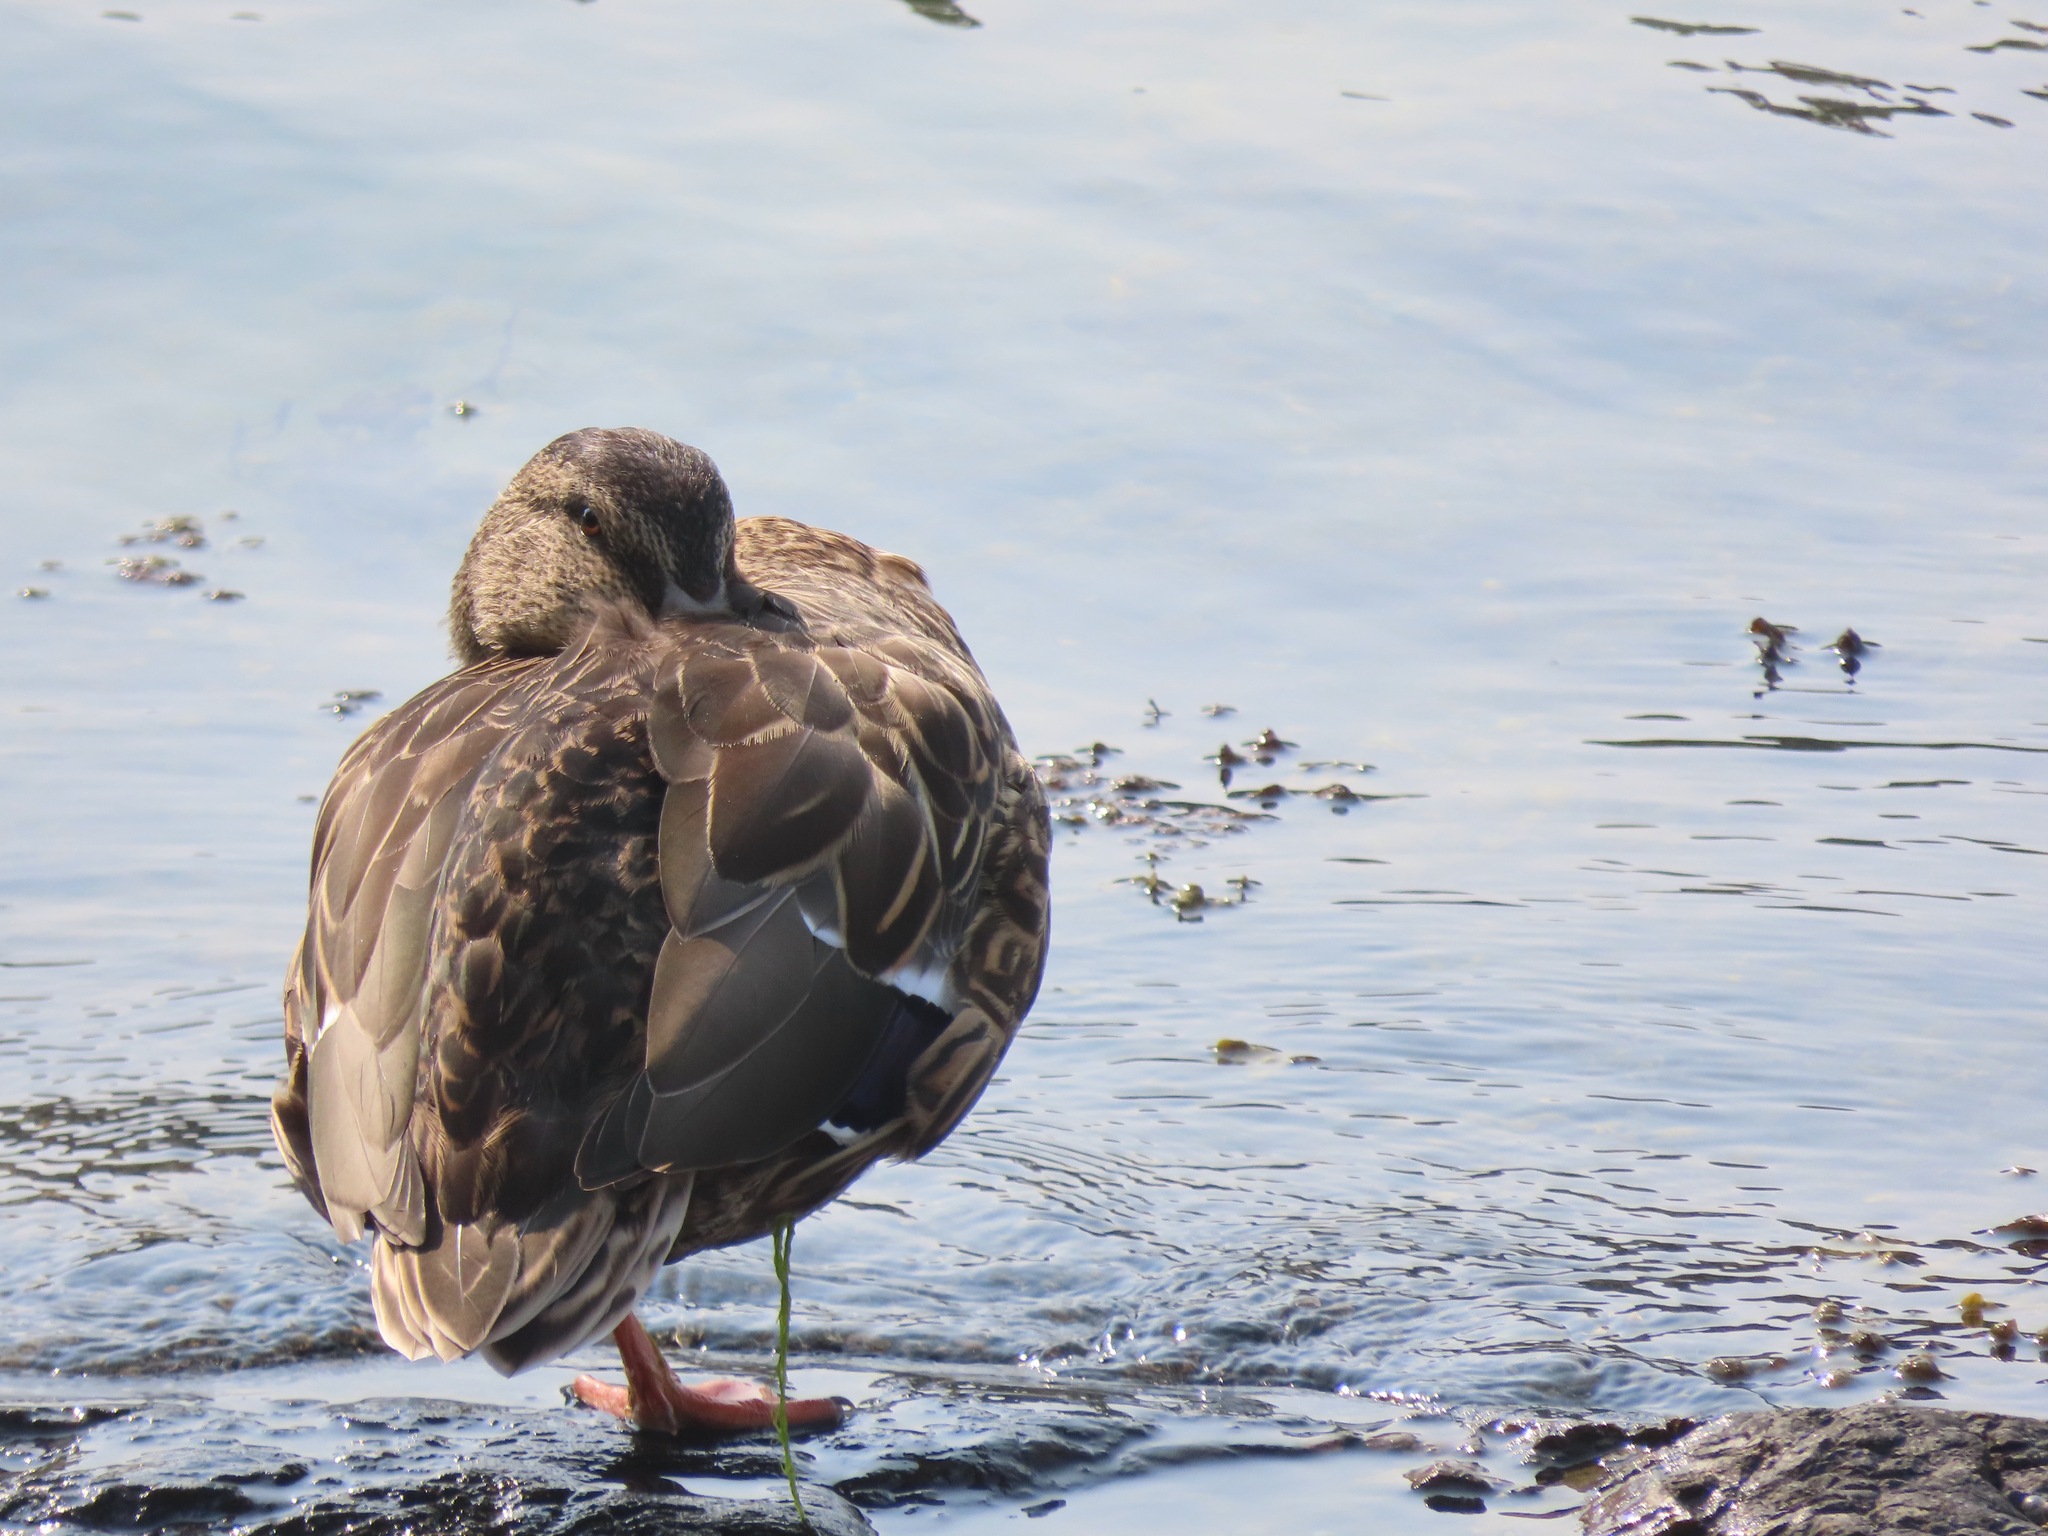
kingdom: Animalia
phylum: Chordata
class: Aves
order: Anseriformes
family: Anatidae
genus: Anas
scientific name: Anas platyrhynchos
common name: Mallard
